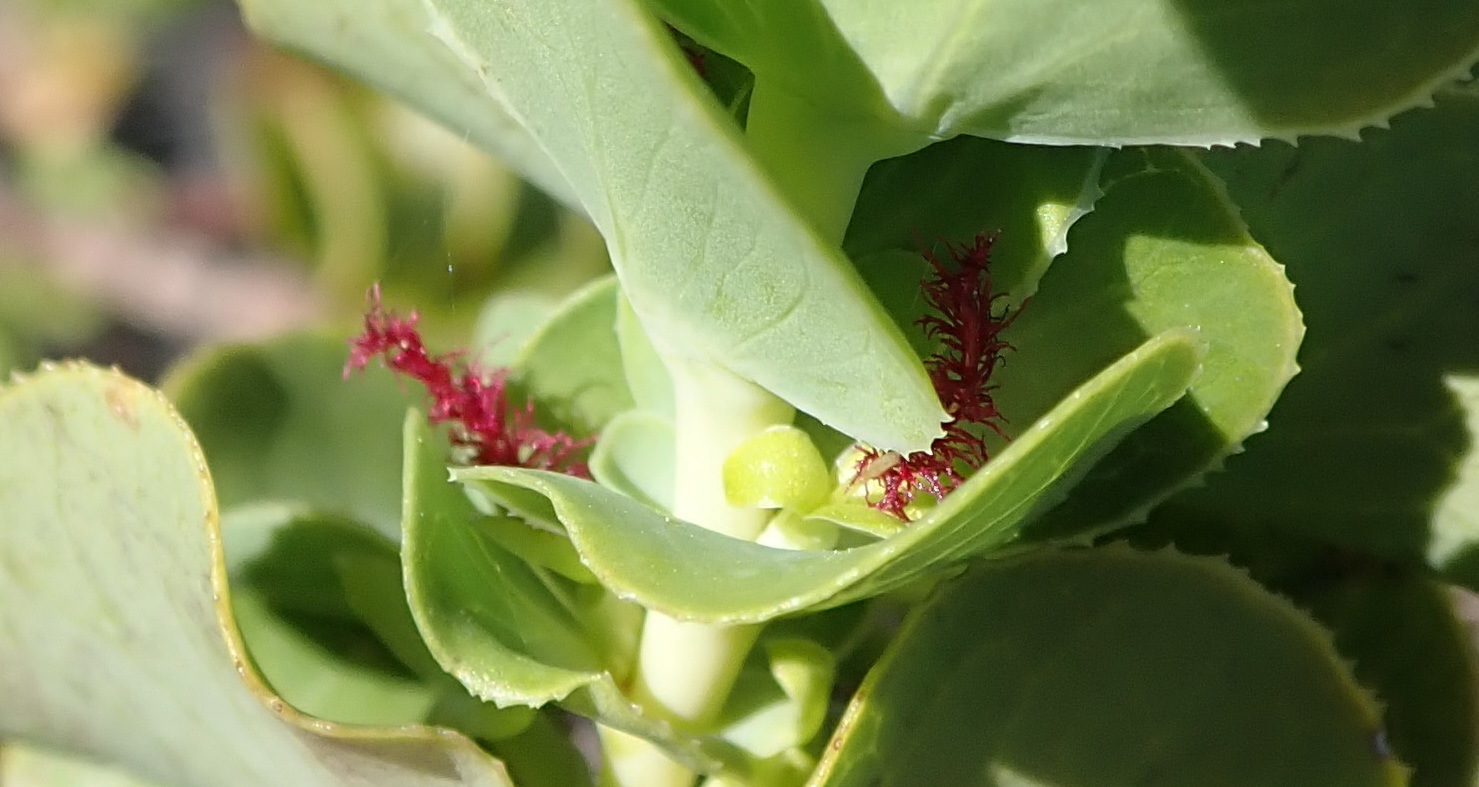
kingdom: Plantae
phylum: Tracheophyta
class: Magnoliopsida
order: Rosales
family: Rosaceae
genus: Cliffortia
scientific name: Cliffortia crenata
